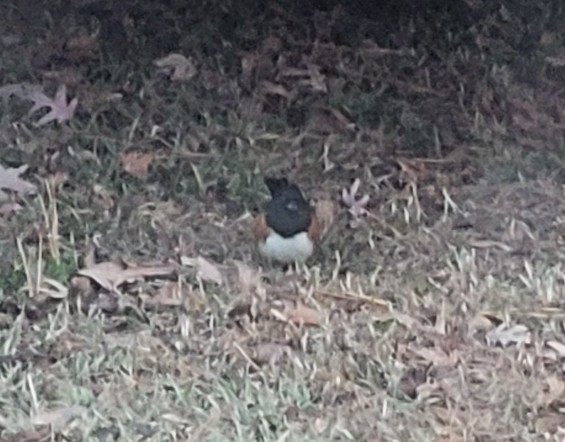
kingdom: Animalia
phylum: Chordata
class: Aves
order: Passeriformes
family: Passerellidae
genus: Pipilo
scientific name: Pipilo erythrophthalmus
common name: Eastern towhee
